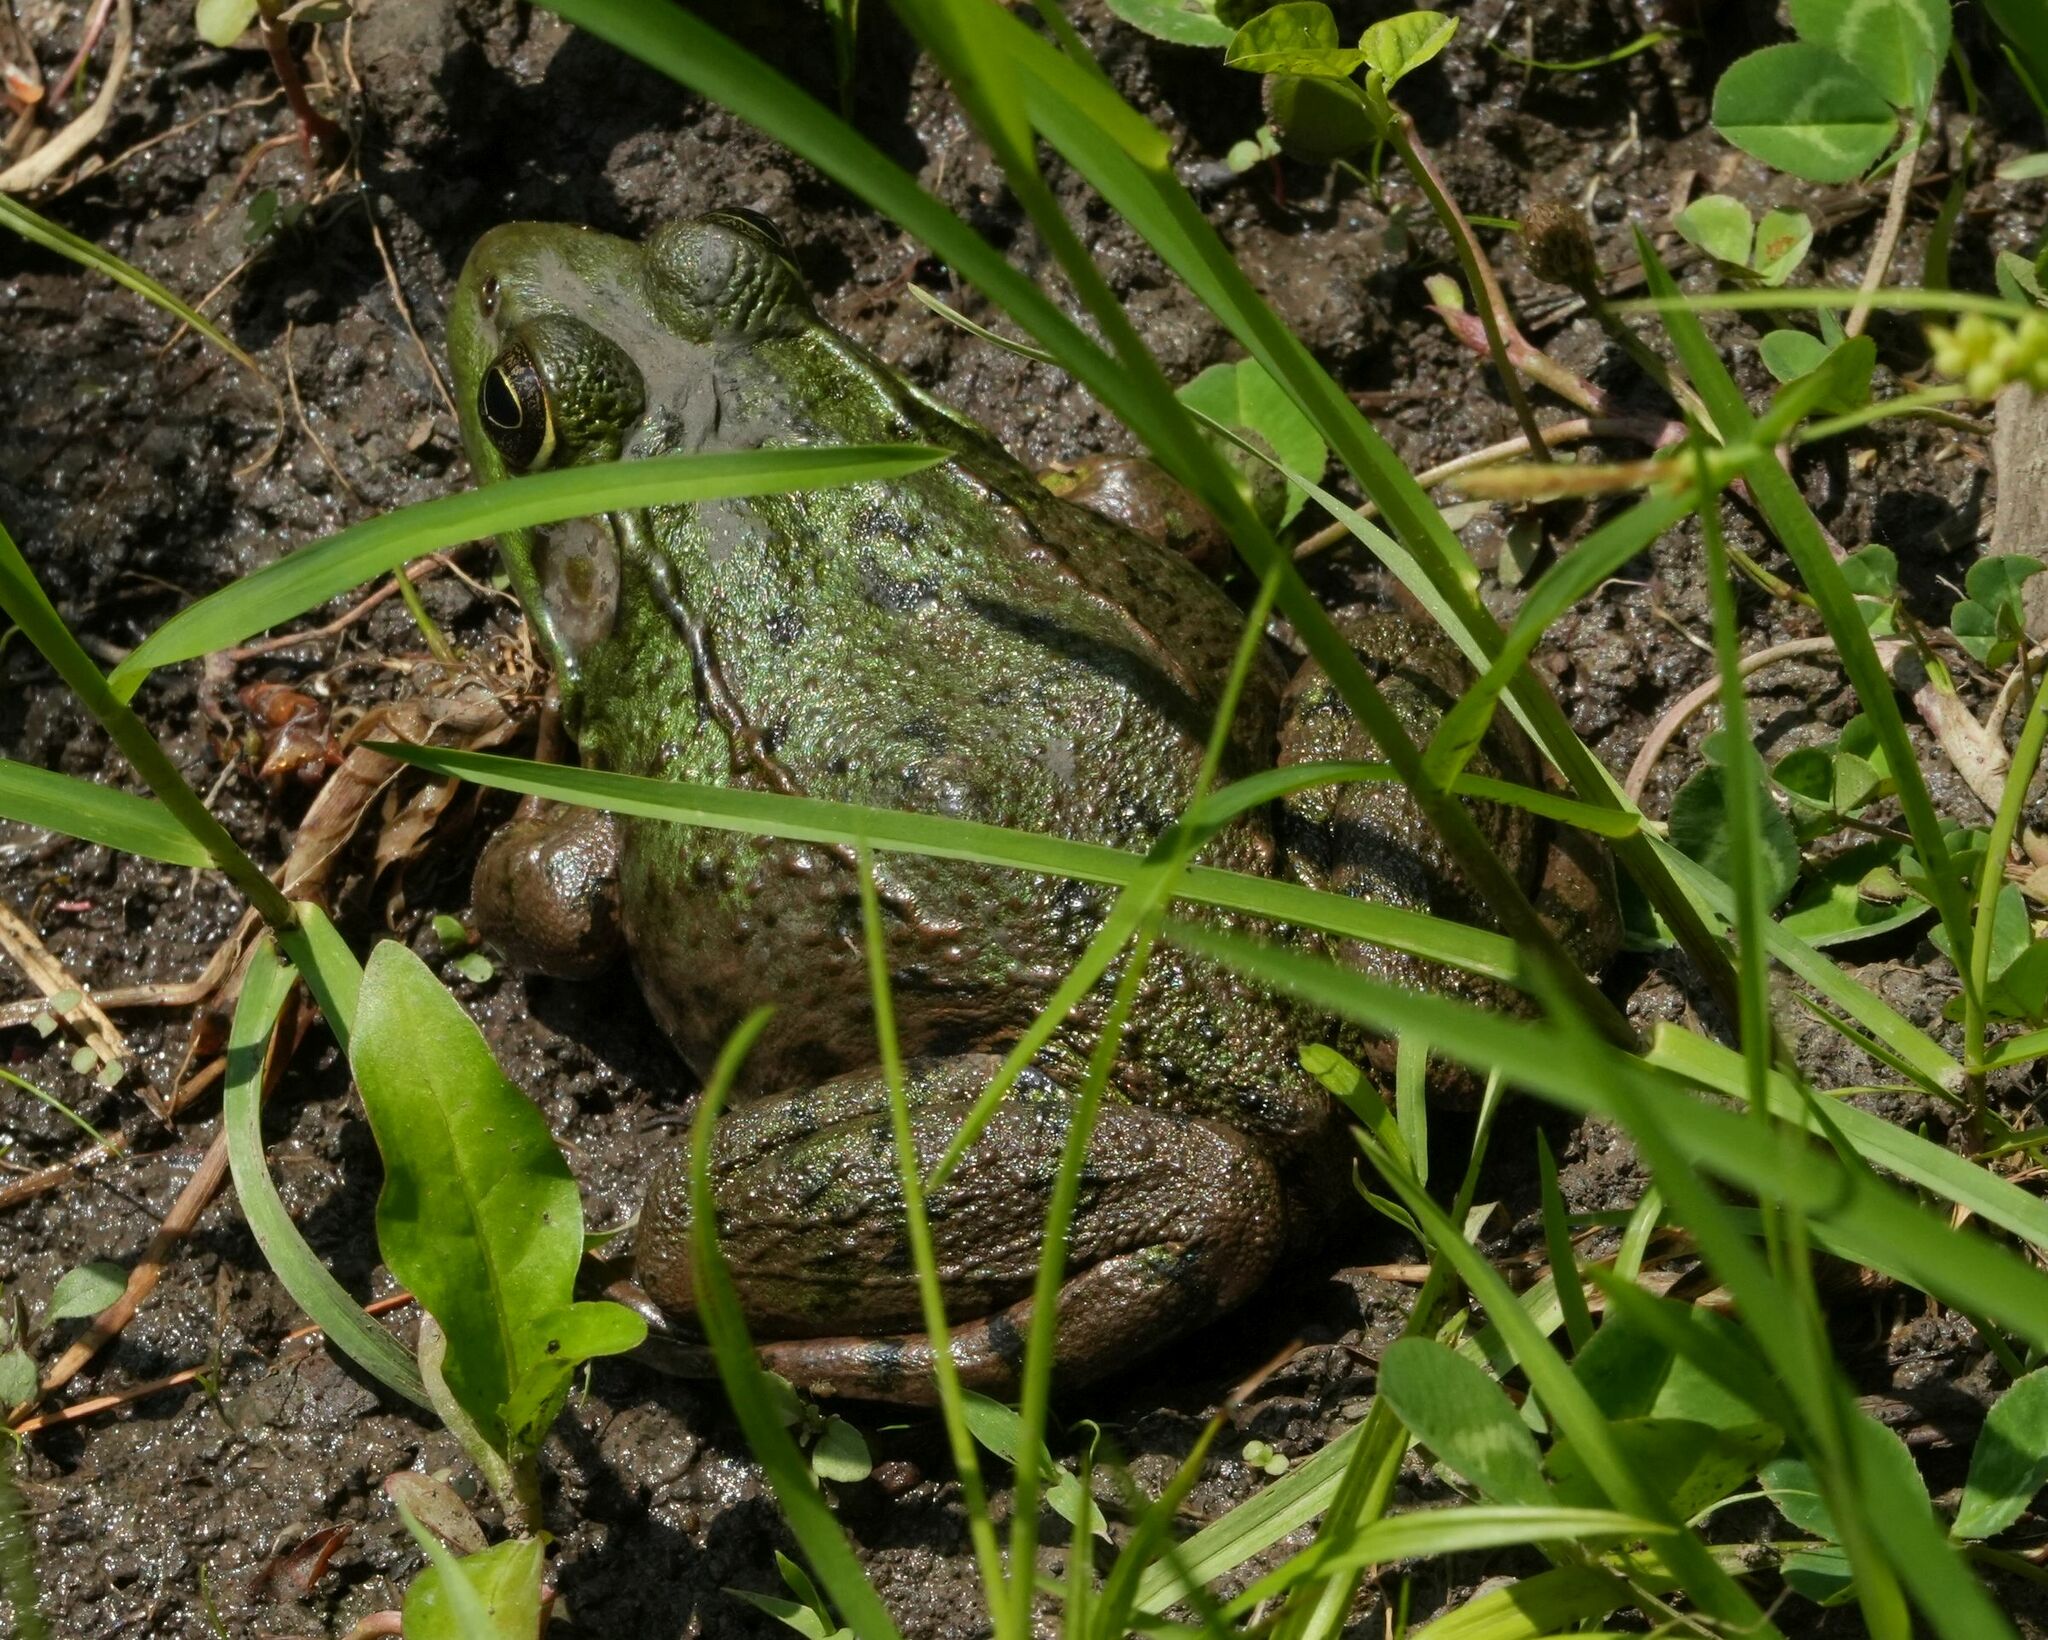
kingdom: Animalia
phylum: Chordata
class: Amphibia
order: Anura
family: Ranidae
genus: Lithobates
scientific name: Lithobates clamitans
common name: Green frog
